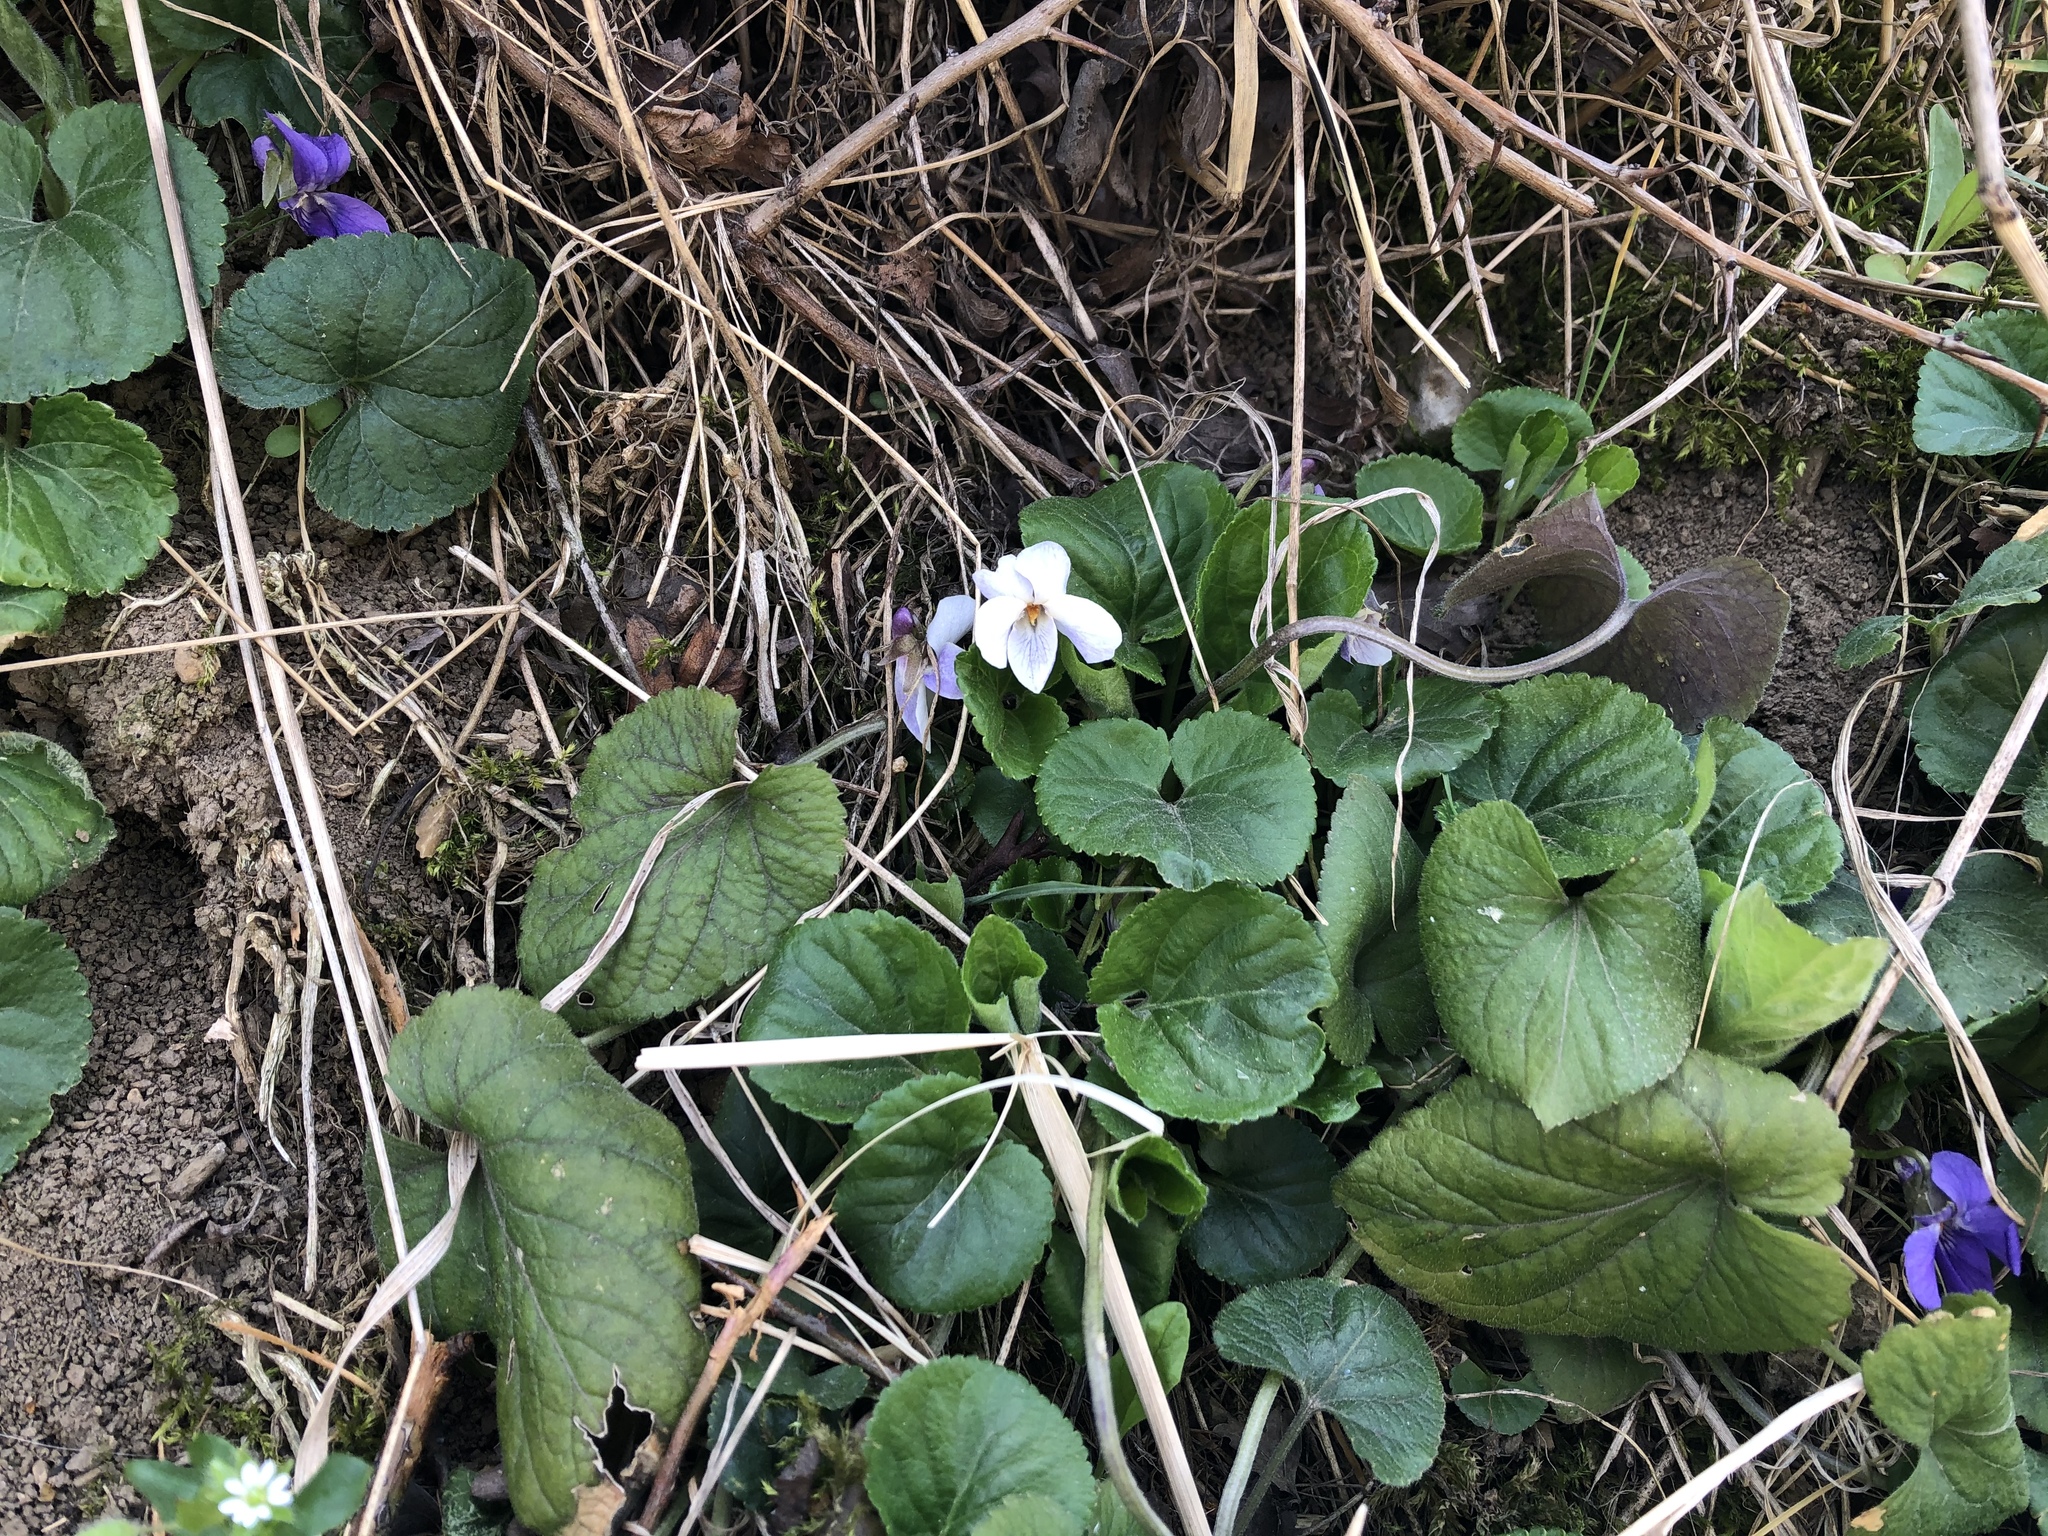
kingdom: Plantae
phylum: Tracheophyta
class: Magnoliopsida
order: Malpighiales
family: Violaceae
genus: Viola
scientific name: Viola odorata
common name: Sweet violet
